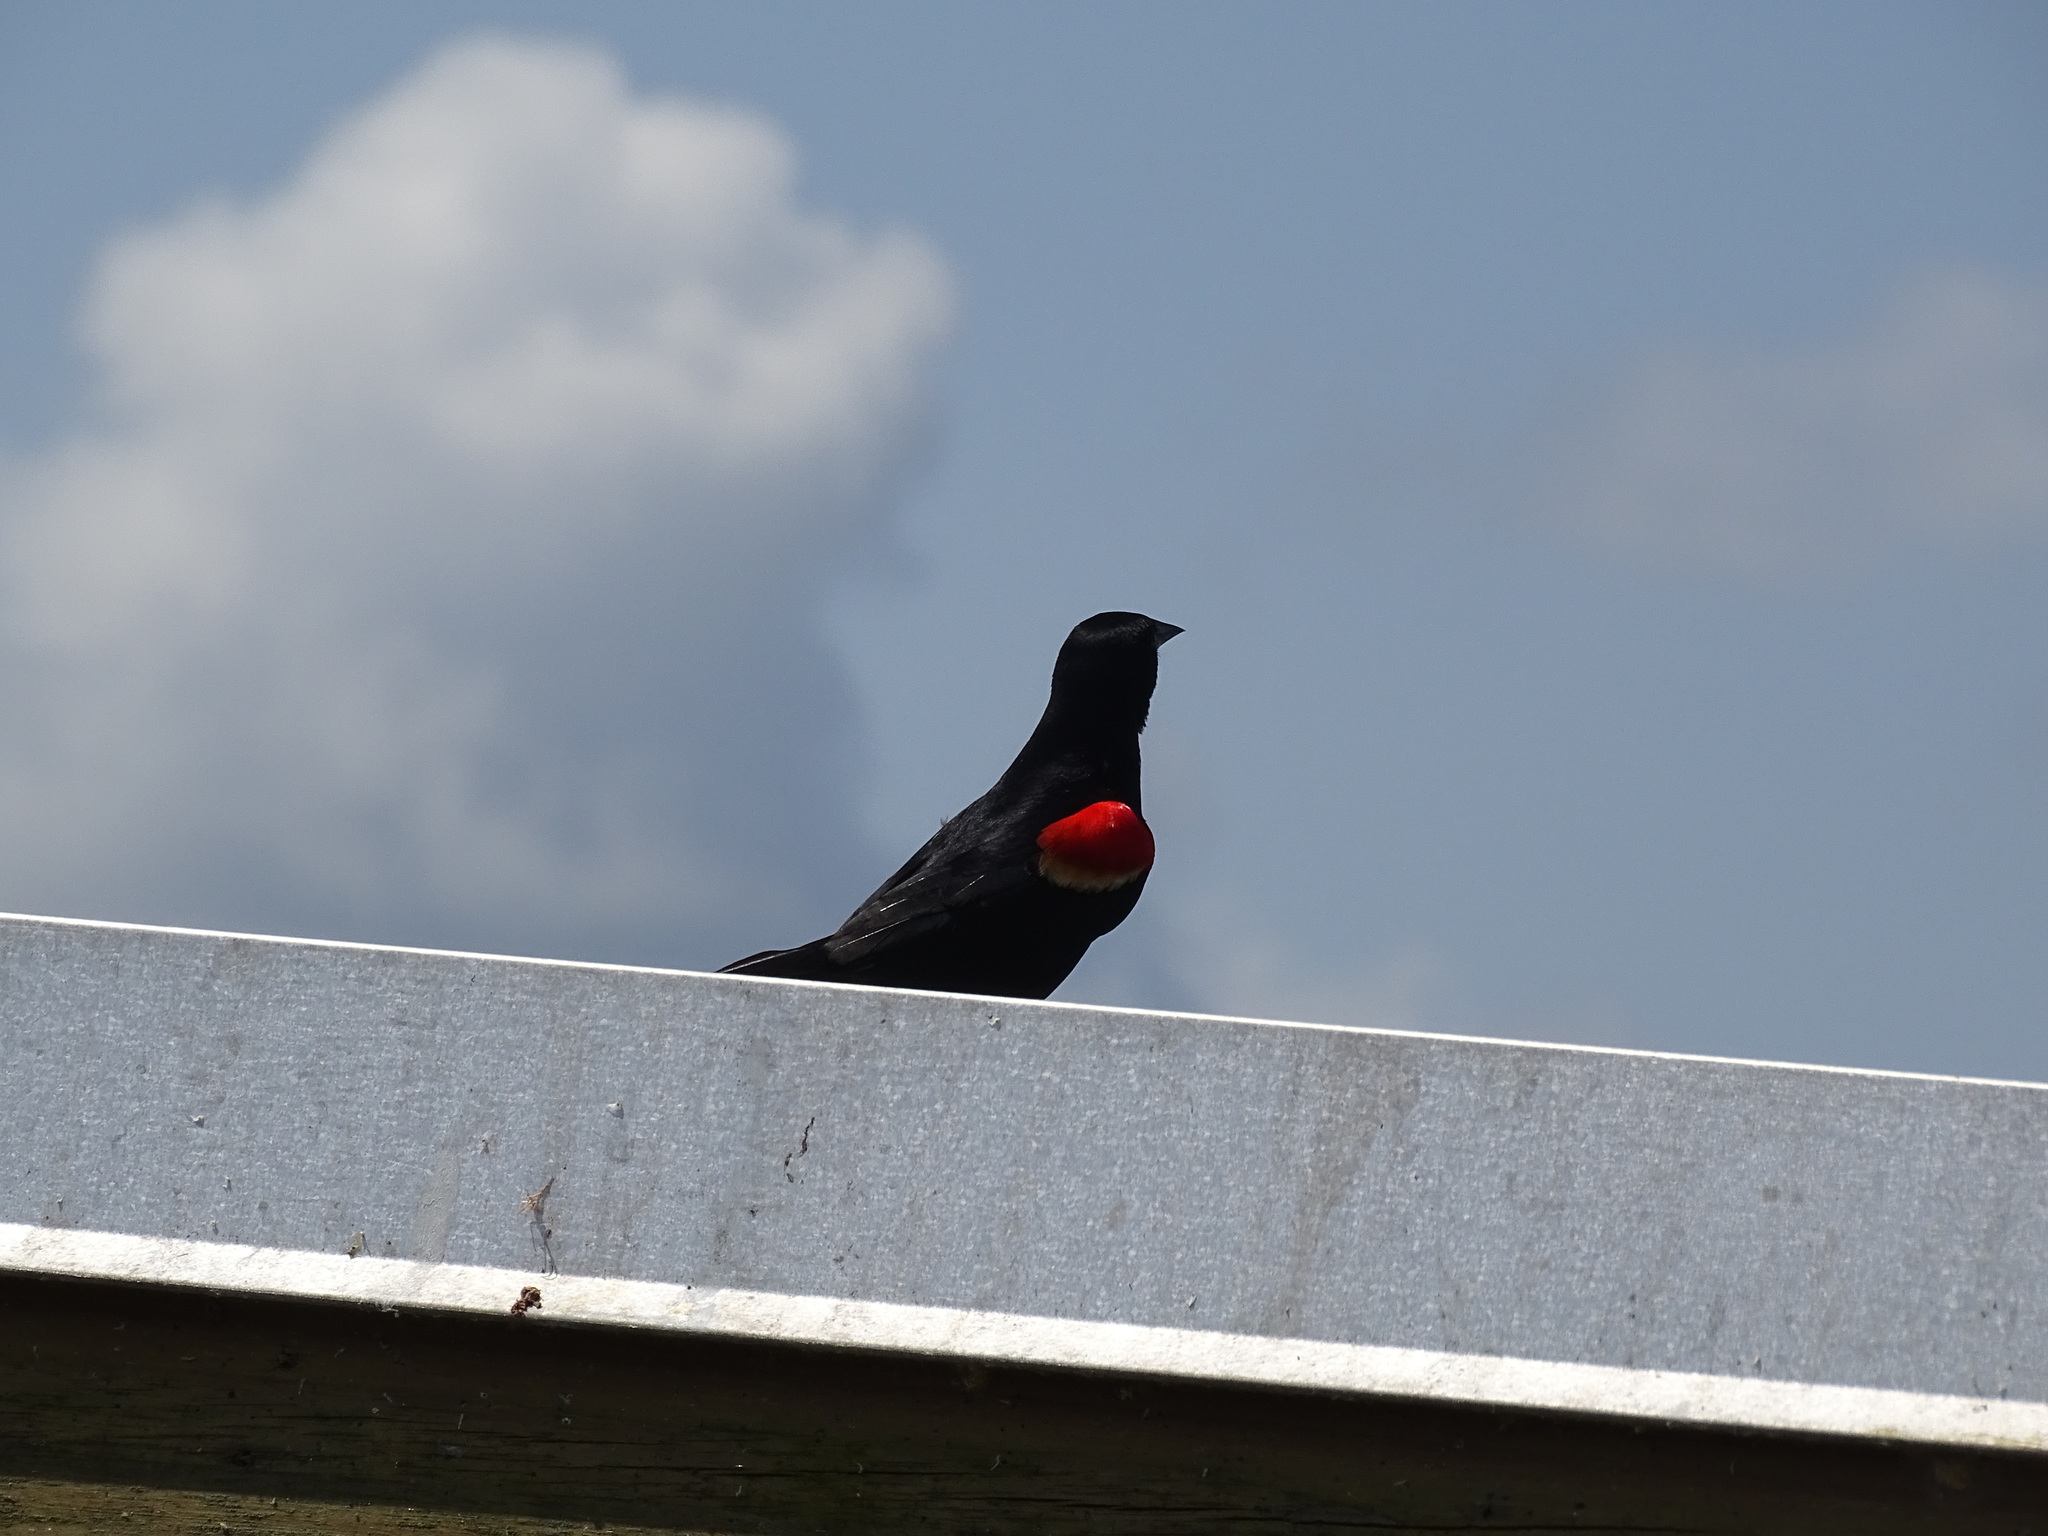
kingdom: Animalia
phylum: Chordata
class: Aves
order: Passeriformes
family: Icteridae
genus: Agelaius
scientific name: Agelaius phoeniceus
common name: Red-winged blackbird
